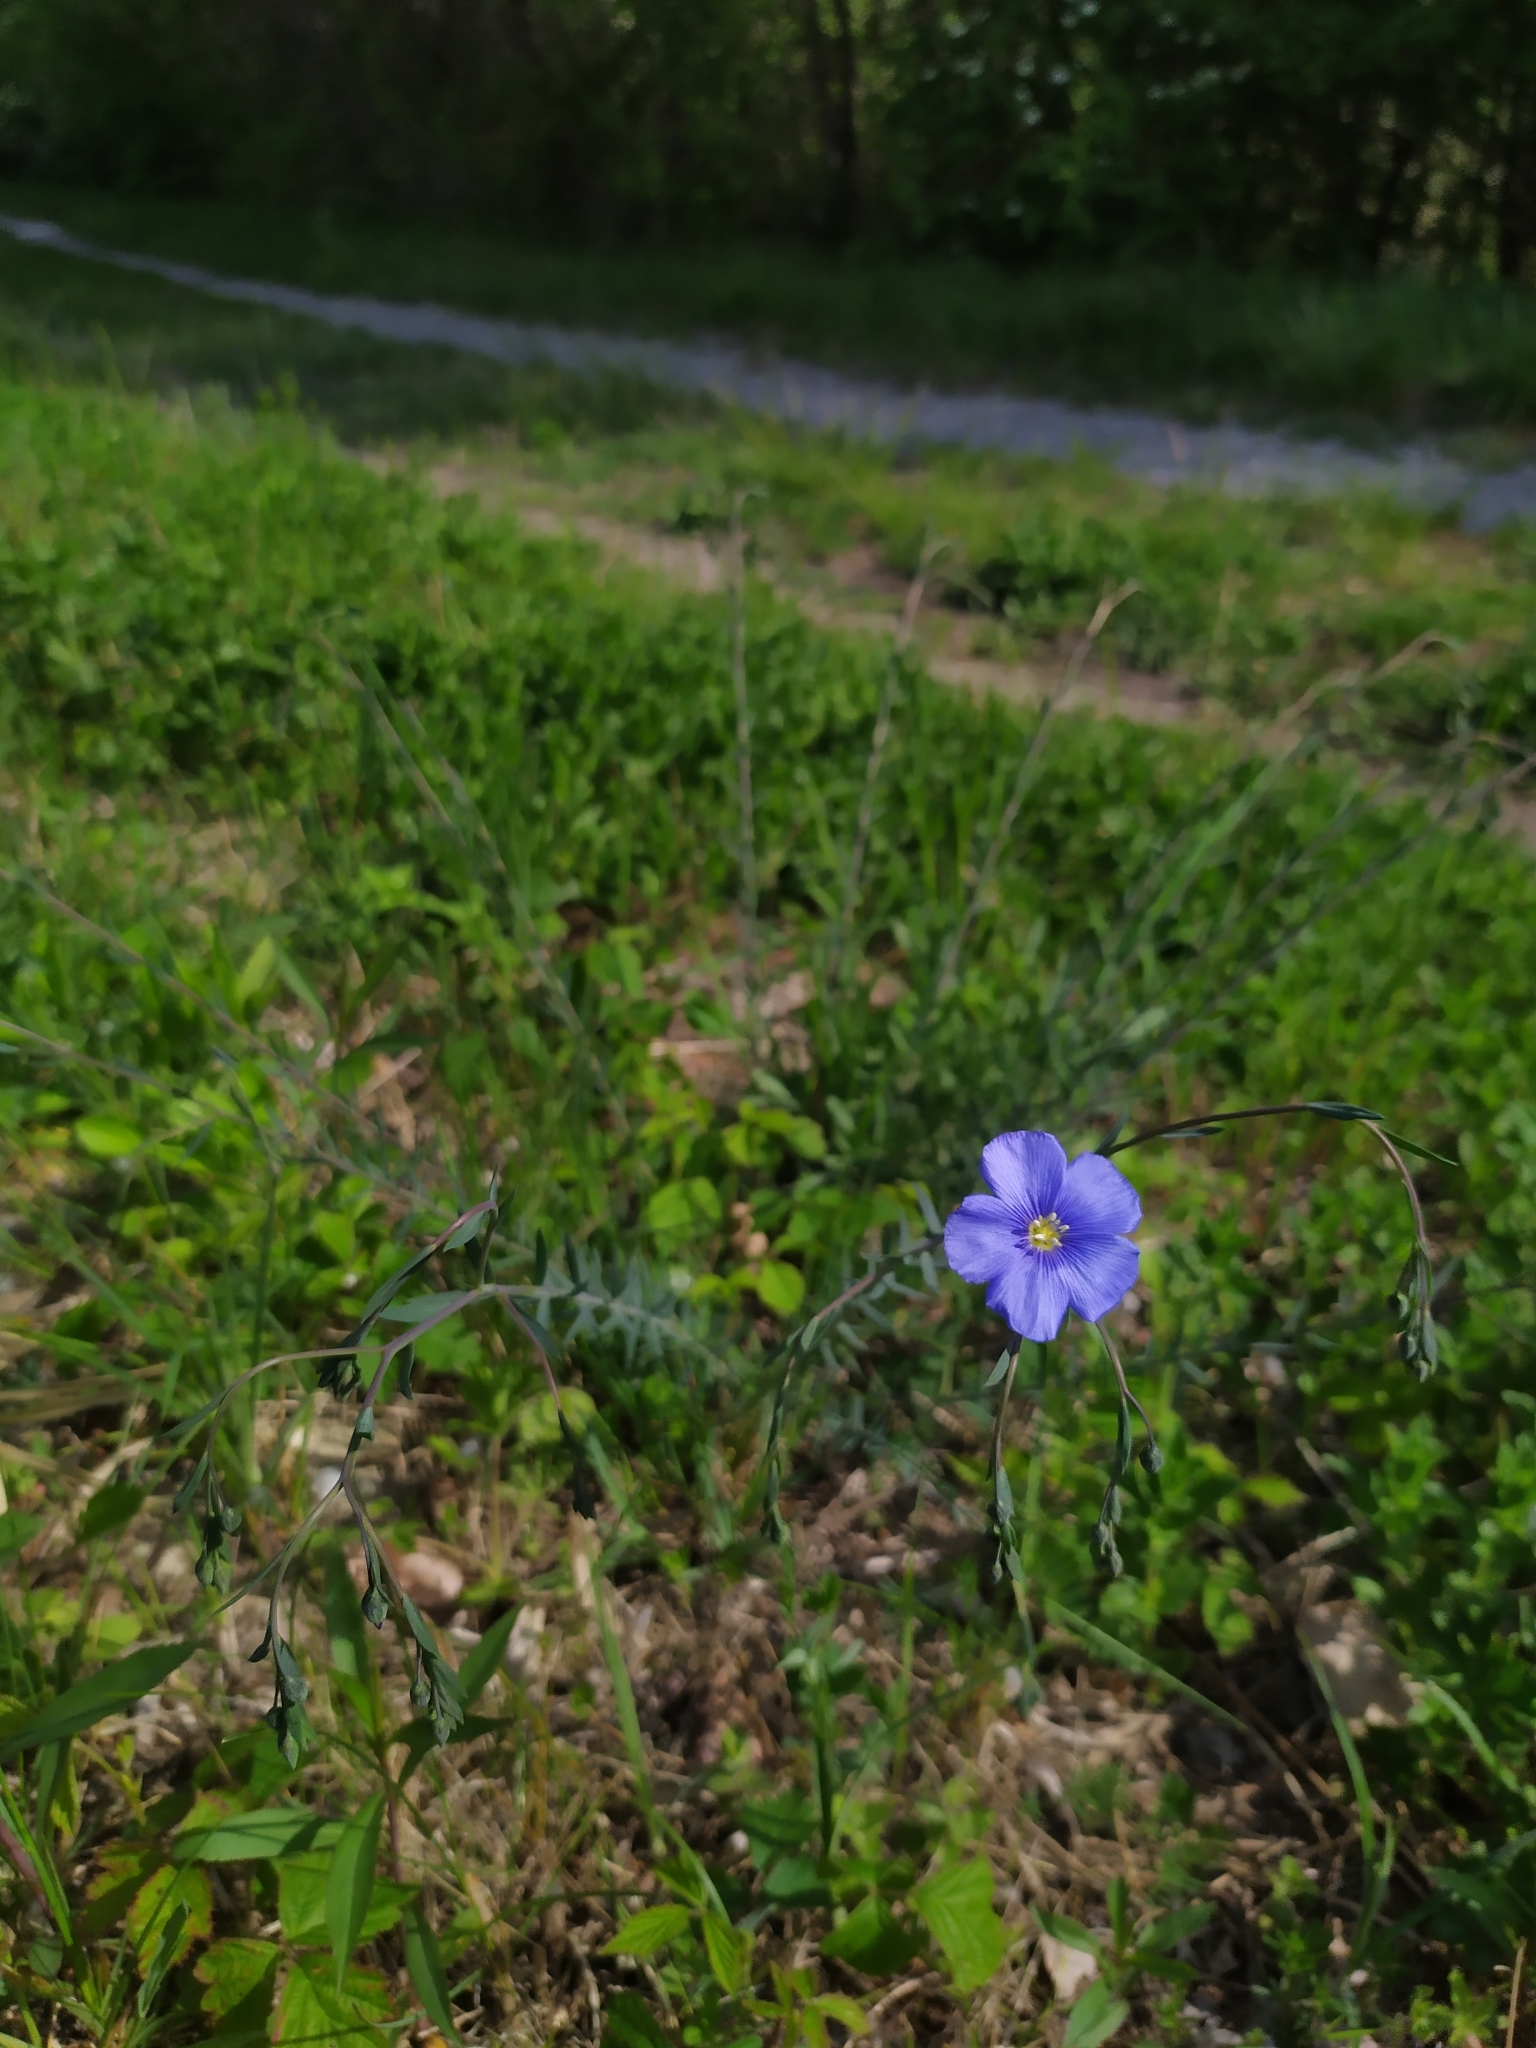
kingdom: Plantae
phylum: Tracheophyta
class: Magnoliopsida
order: Malpighiales
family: Linaceae
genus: Linum
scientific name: Linum austriacum
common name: Austrian flax
